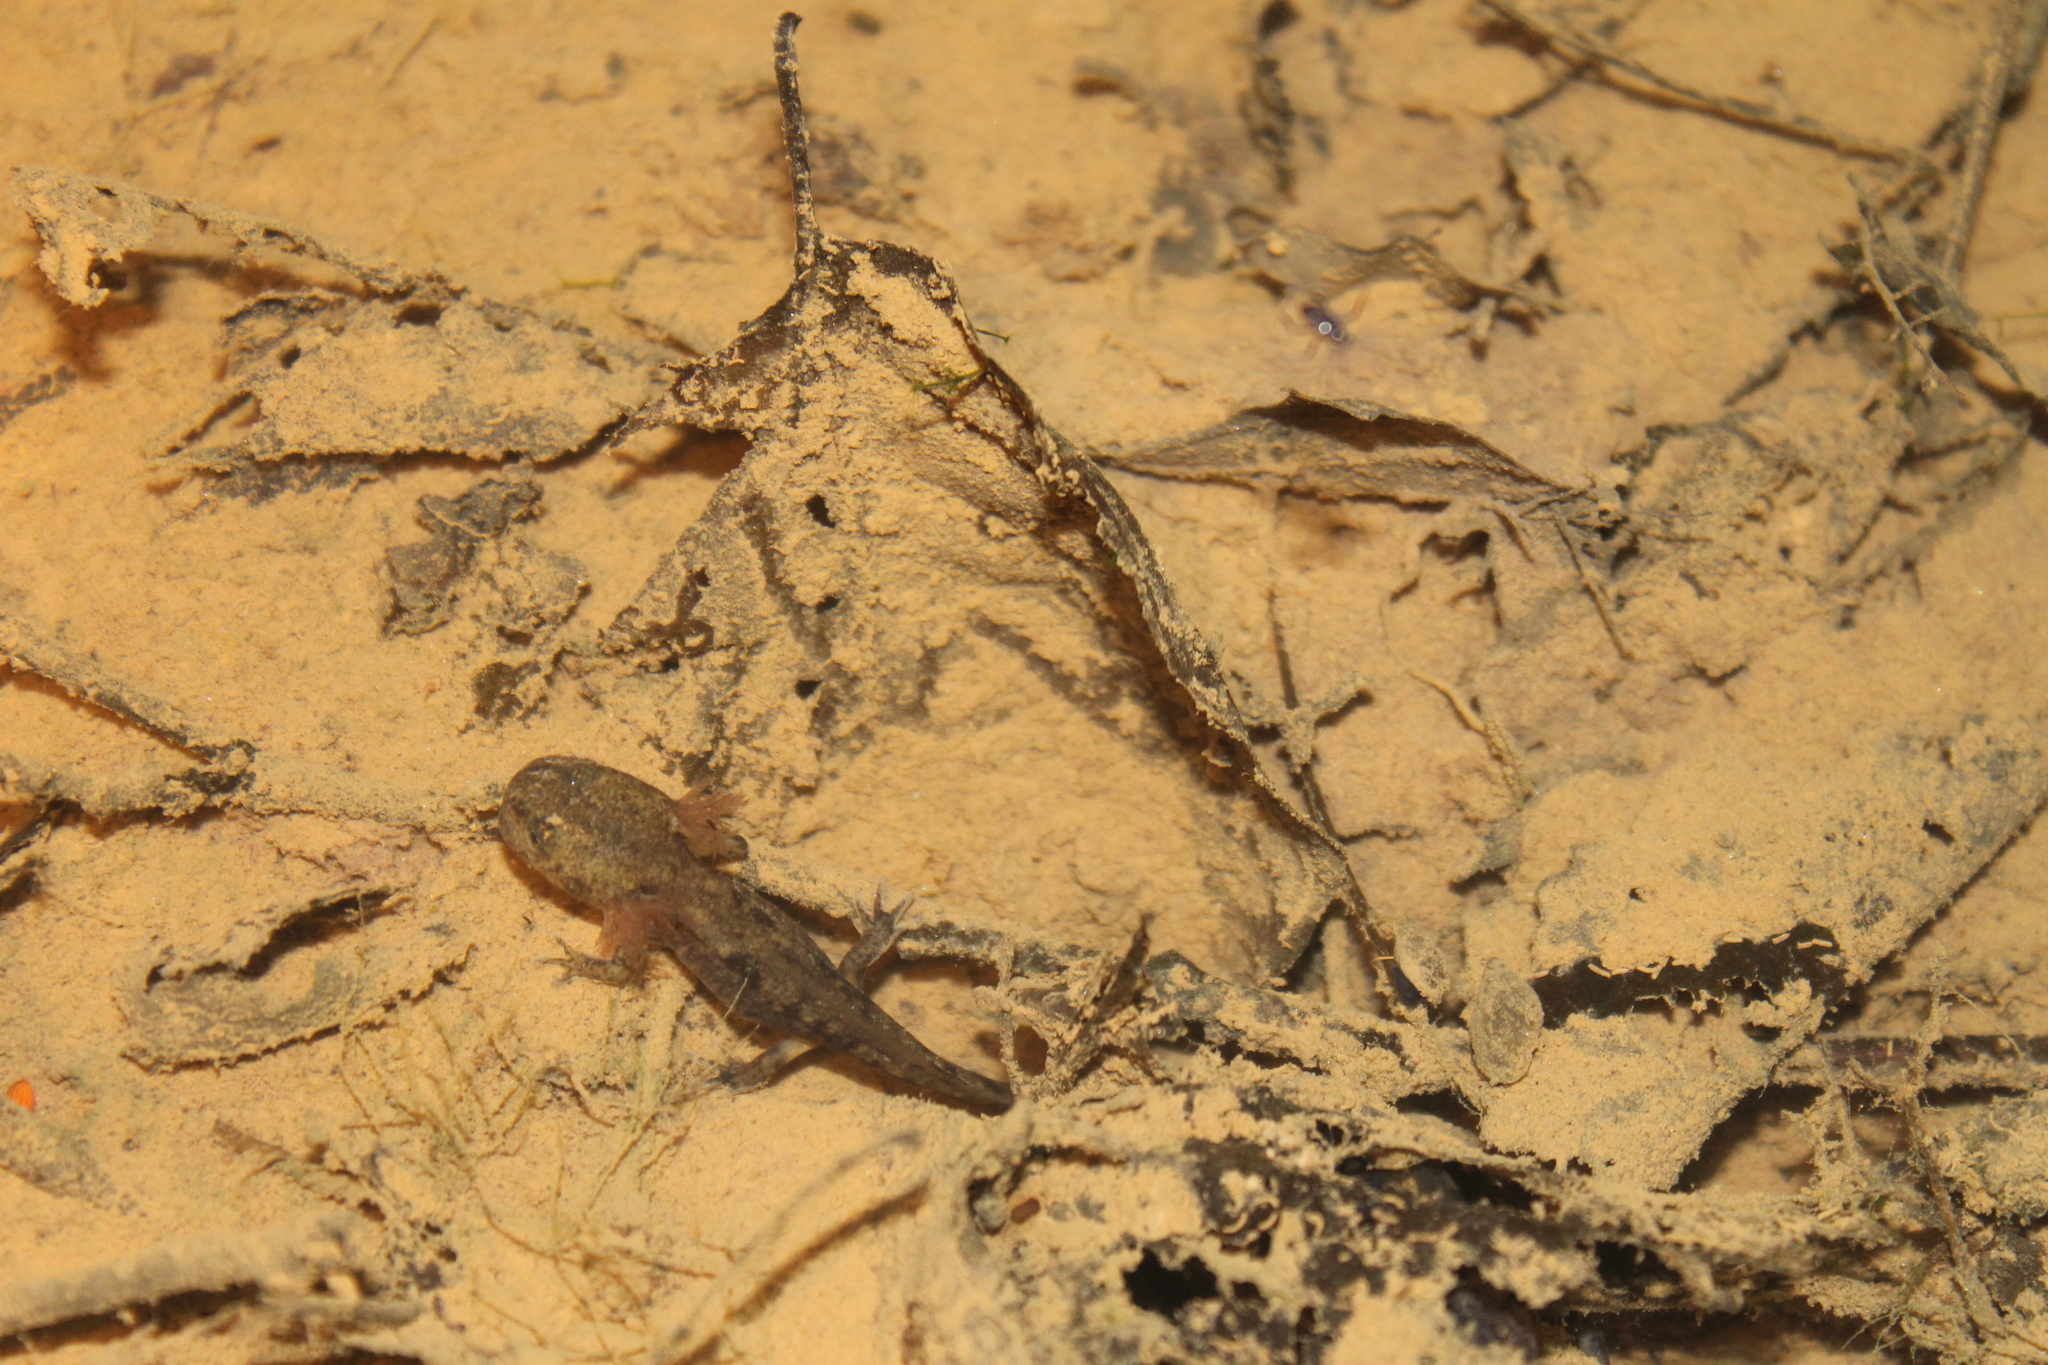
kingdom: Animalia
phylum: Chordata
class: Amphibia
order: Caudata
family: Salamandridae
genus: Salamandra
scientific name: Salamandra salamandra
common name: Fire salamander
